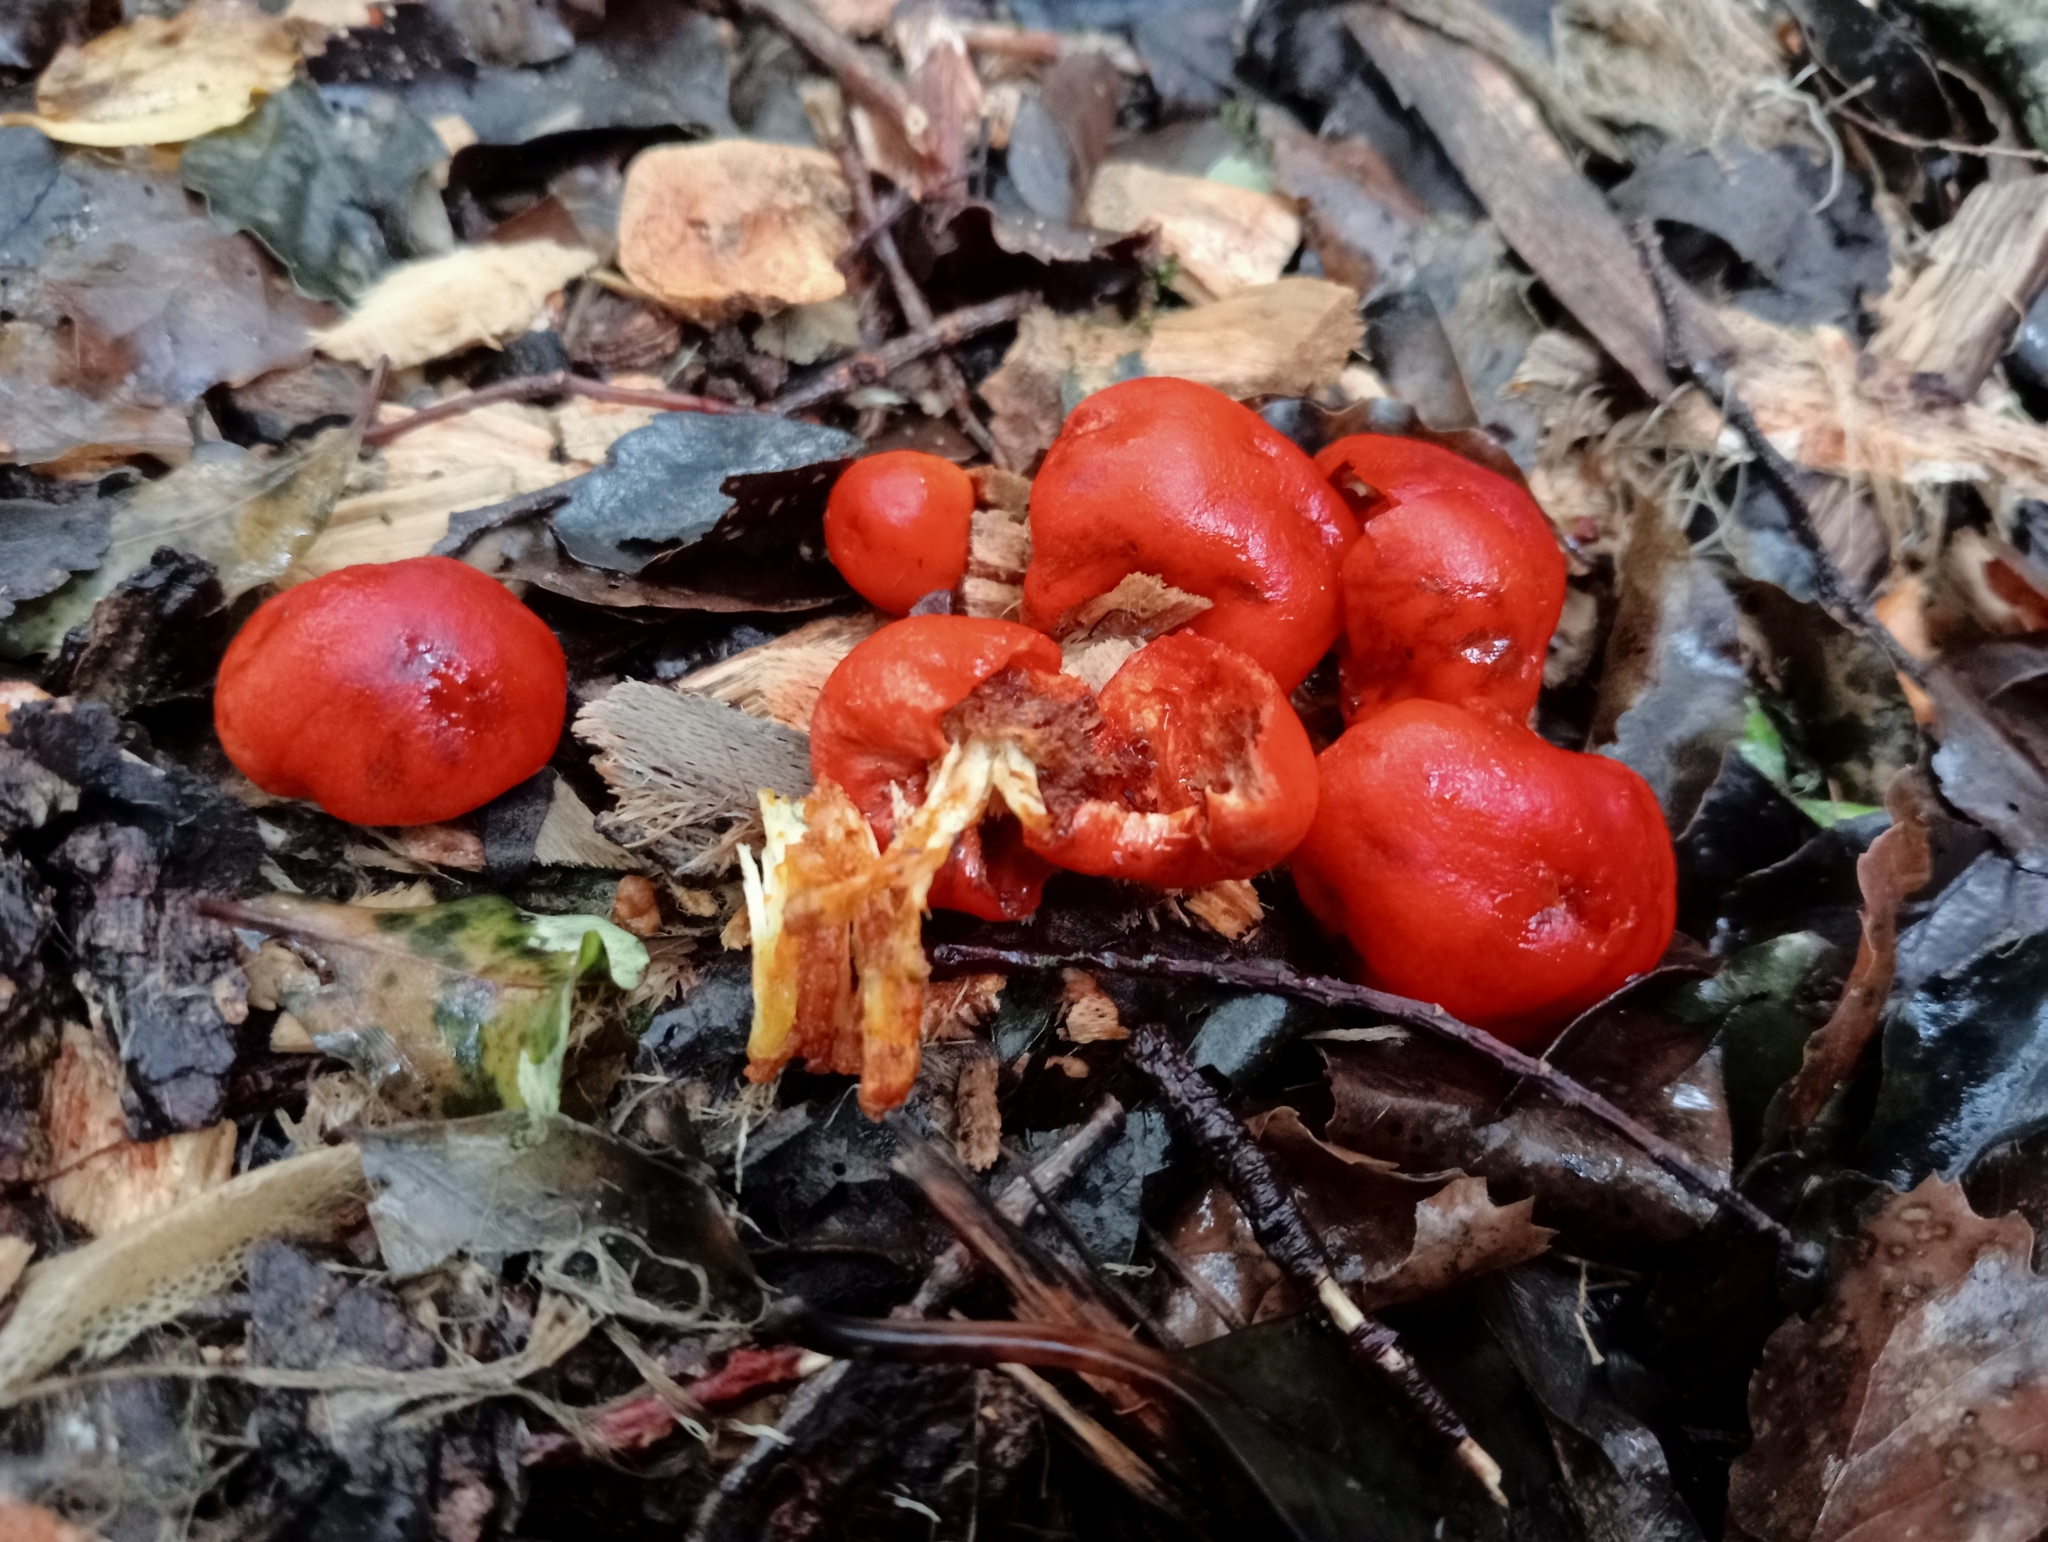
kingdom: Fungi
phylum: Basidiomycota
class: Agaricomycetes
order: Agaricales
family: Strophariaceae
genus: Leratiomyces
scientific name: Leratiomyces erythrocephalus
